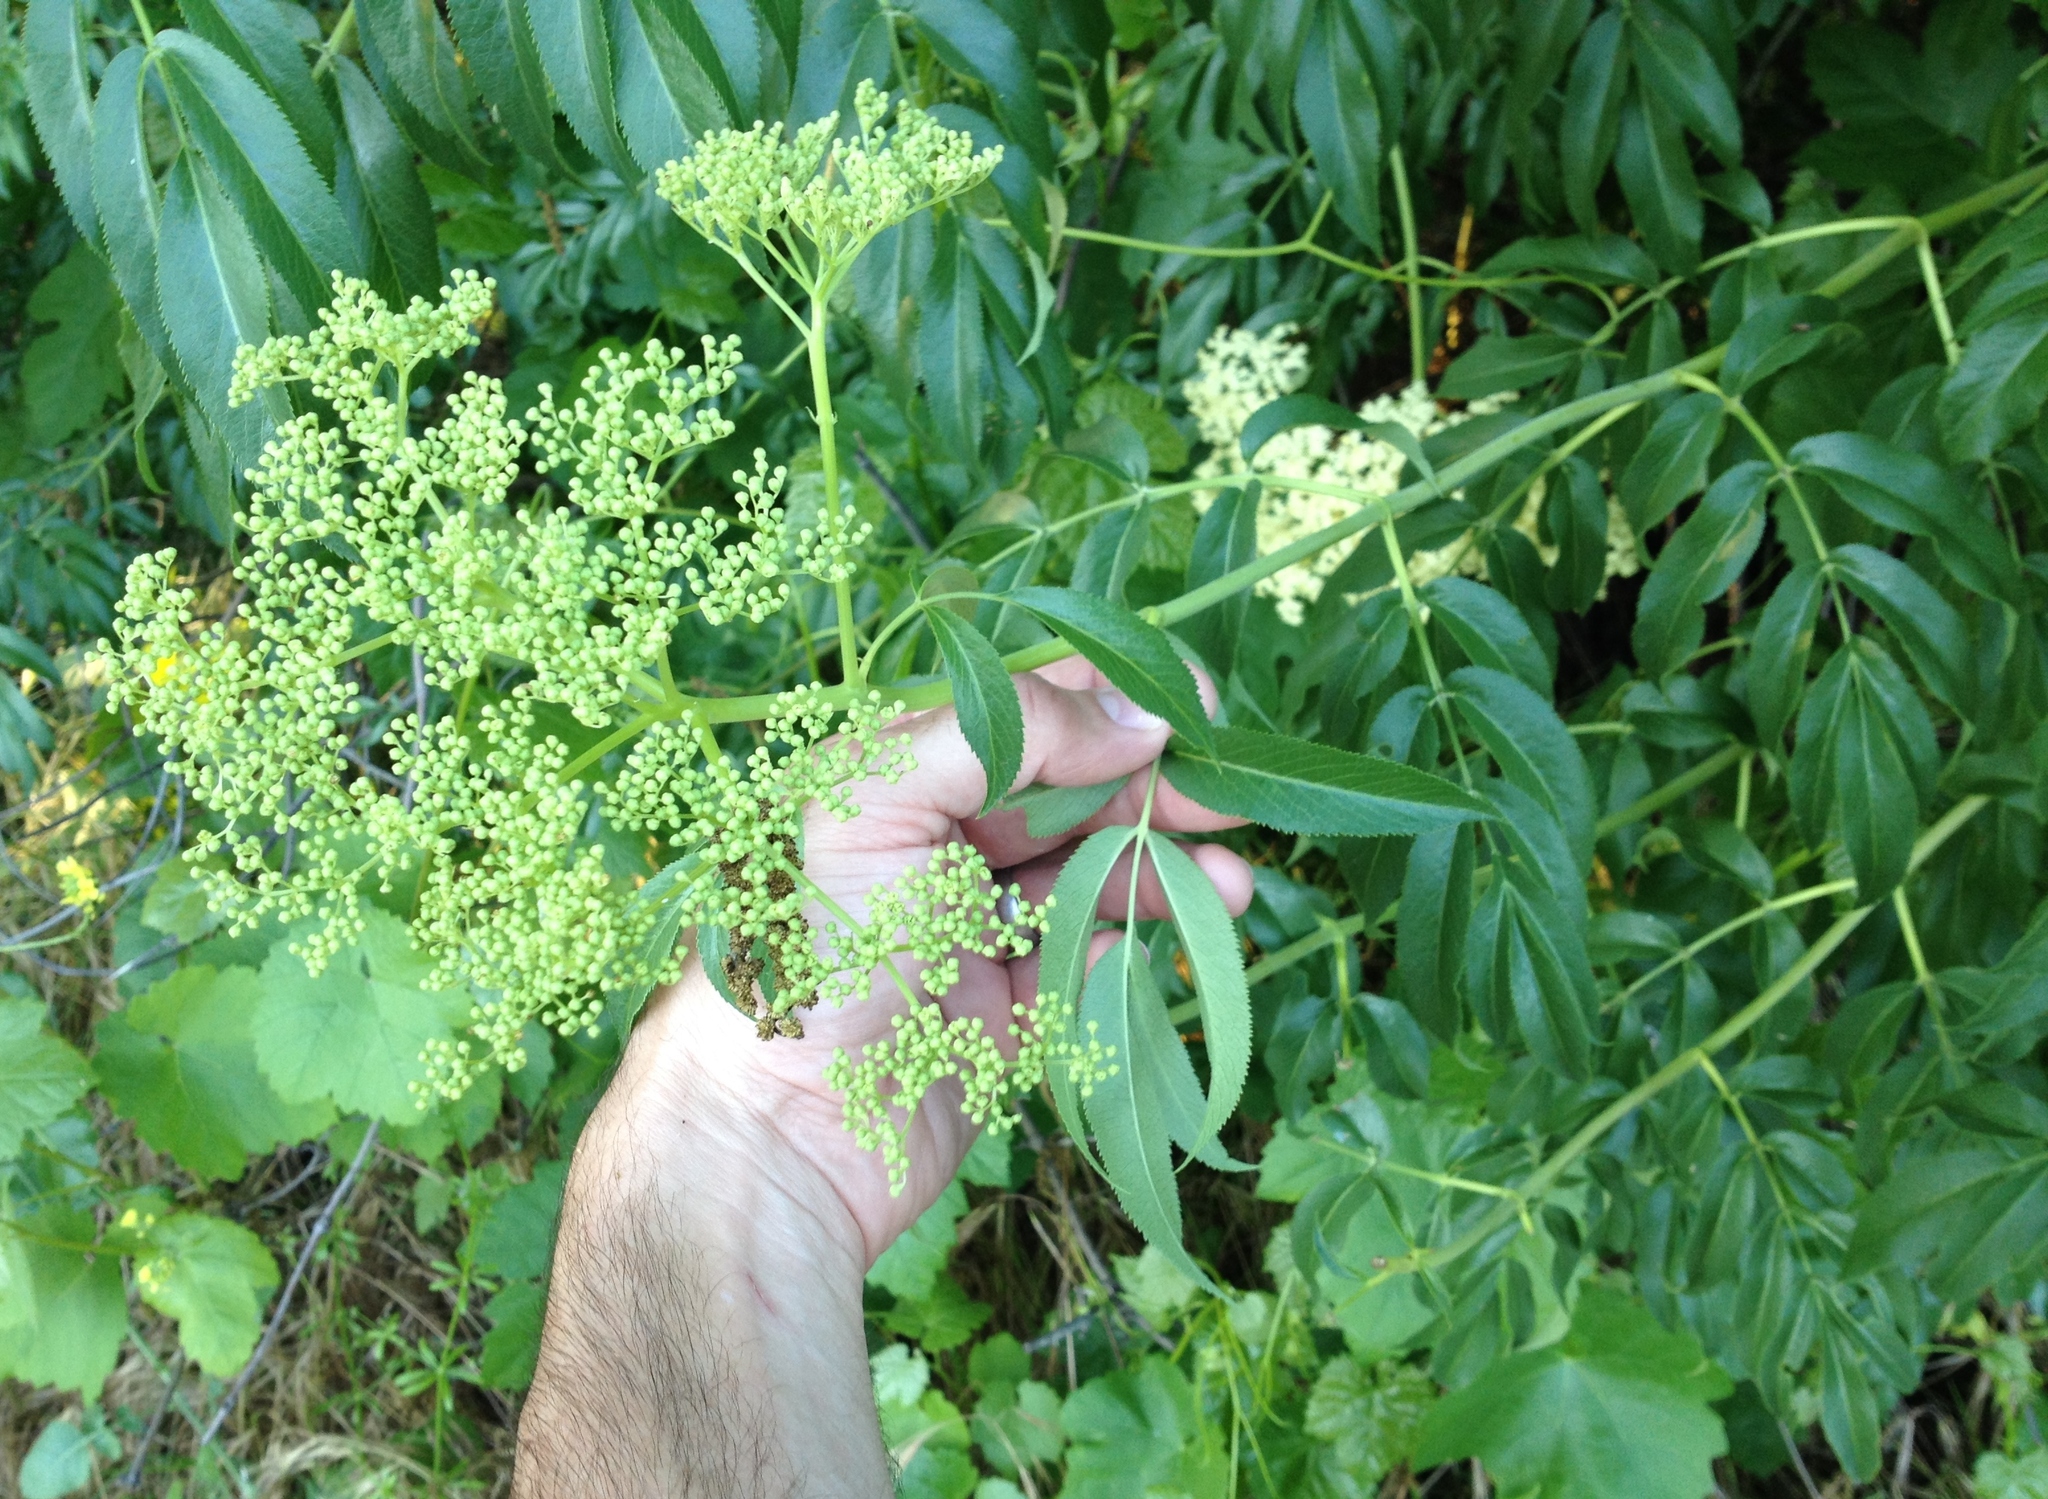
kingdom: Plantae
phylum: Tracheophyta
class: Magnoliopsida
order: Dipsacales
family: Viburnaceae
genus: Sambucus
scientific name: Sambucus cerulea
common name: Blue elder
